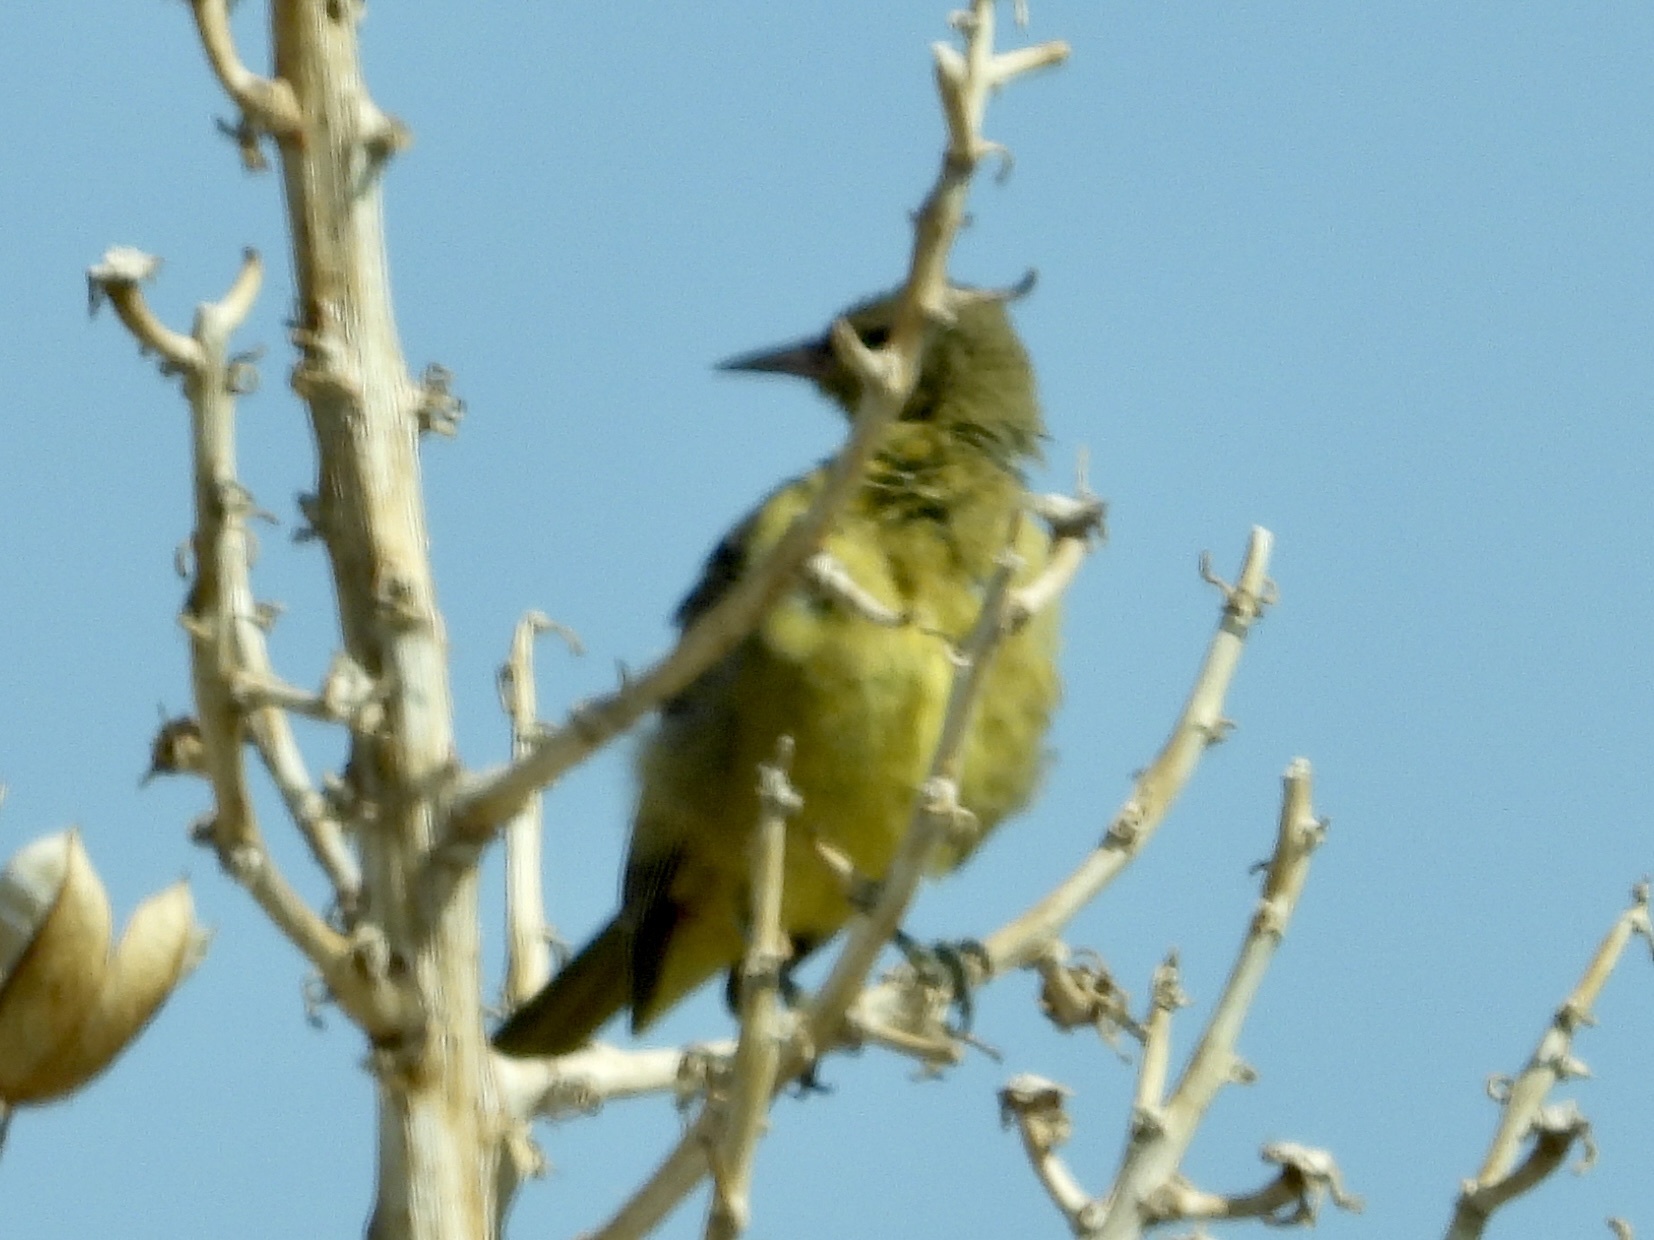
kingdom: Animalia
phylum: Chordata
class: Aves
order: Passeriformes
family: Icteridae
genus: Icterus
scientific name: Icterus parisorum
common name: Scott's oriole
